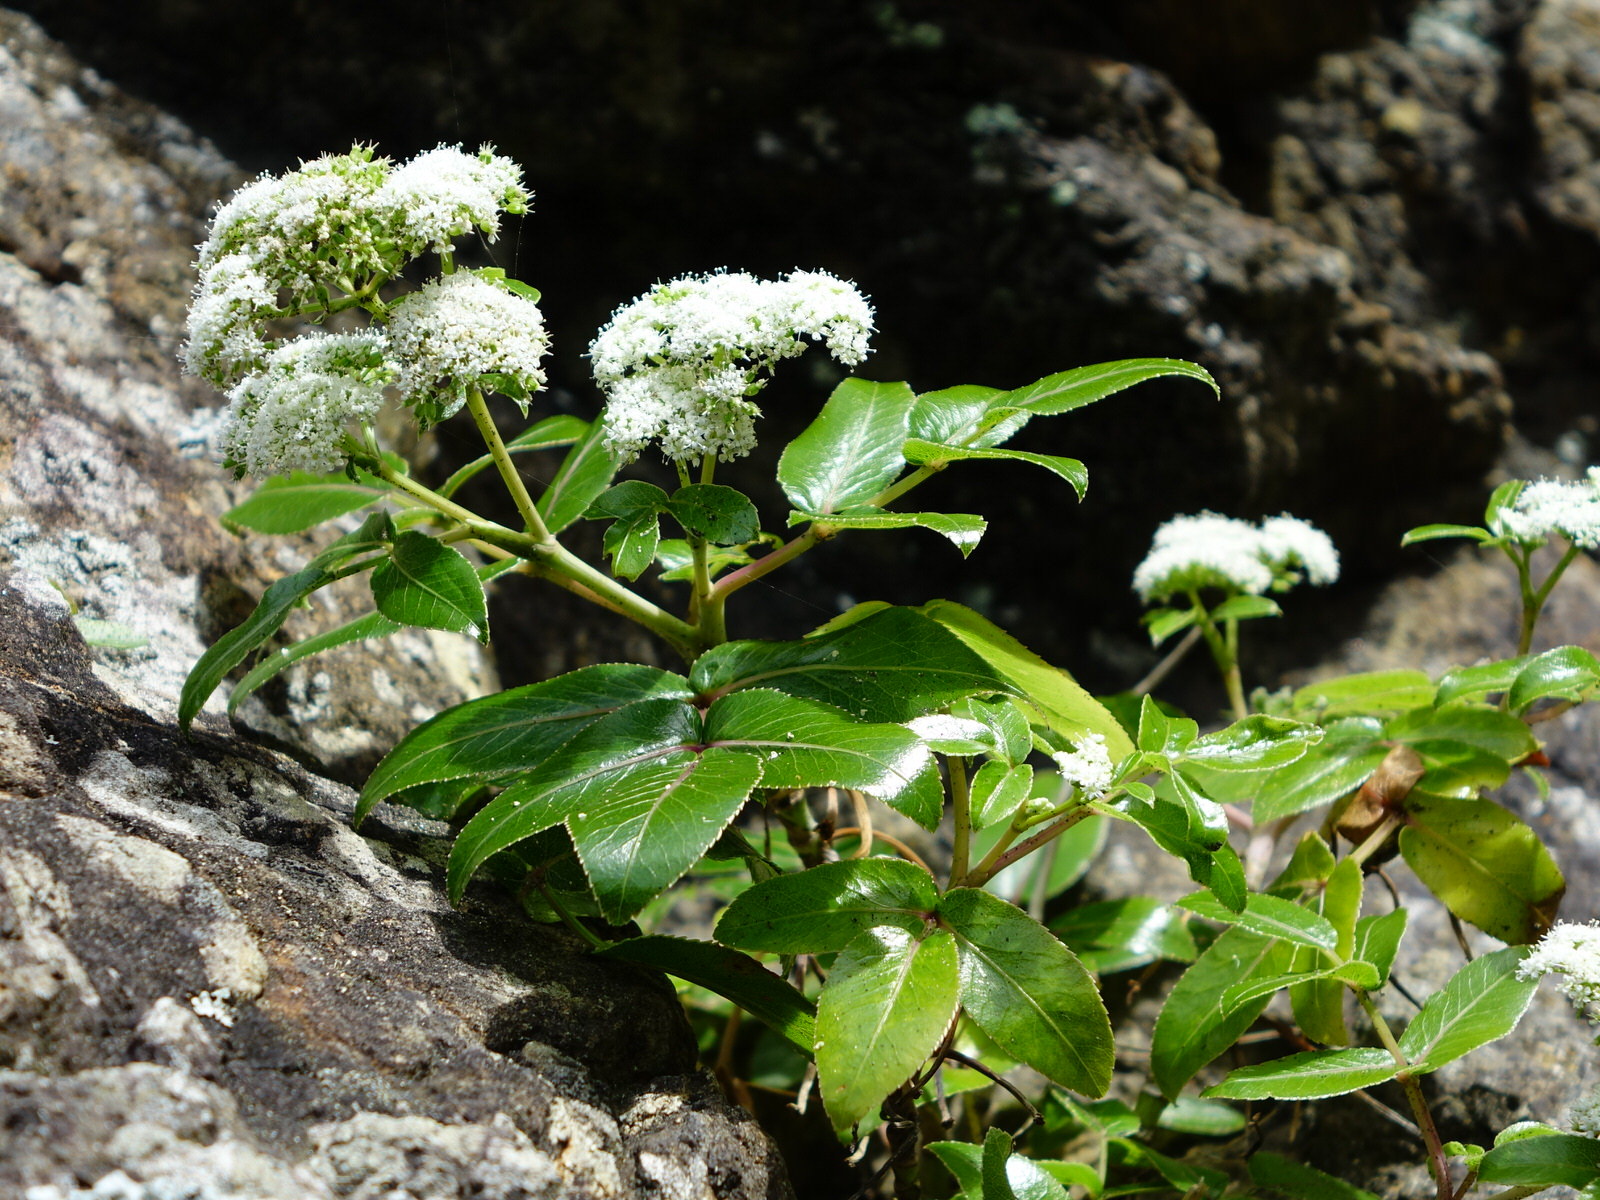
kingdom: Plantae
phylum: Tracheophyta
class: Magnoliopsida
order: Apiales
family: Apiaceae
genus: Scandia
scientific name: Scandia rosifolia
